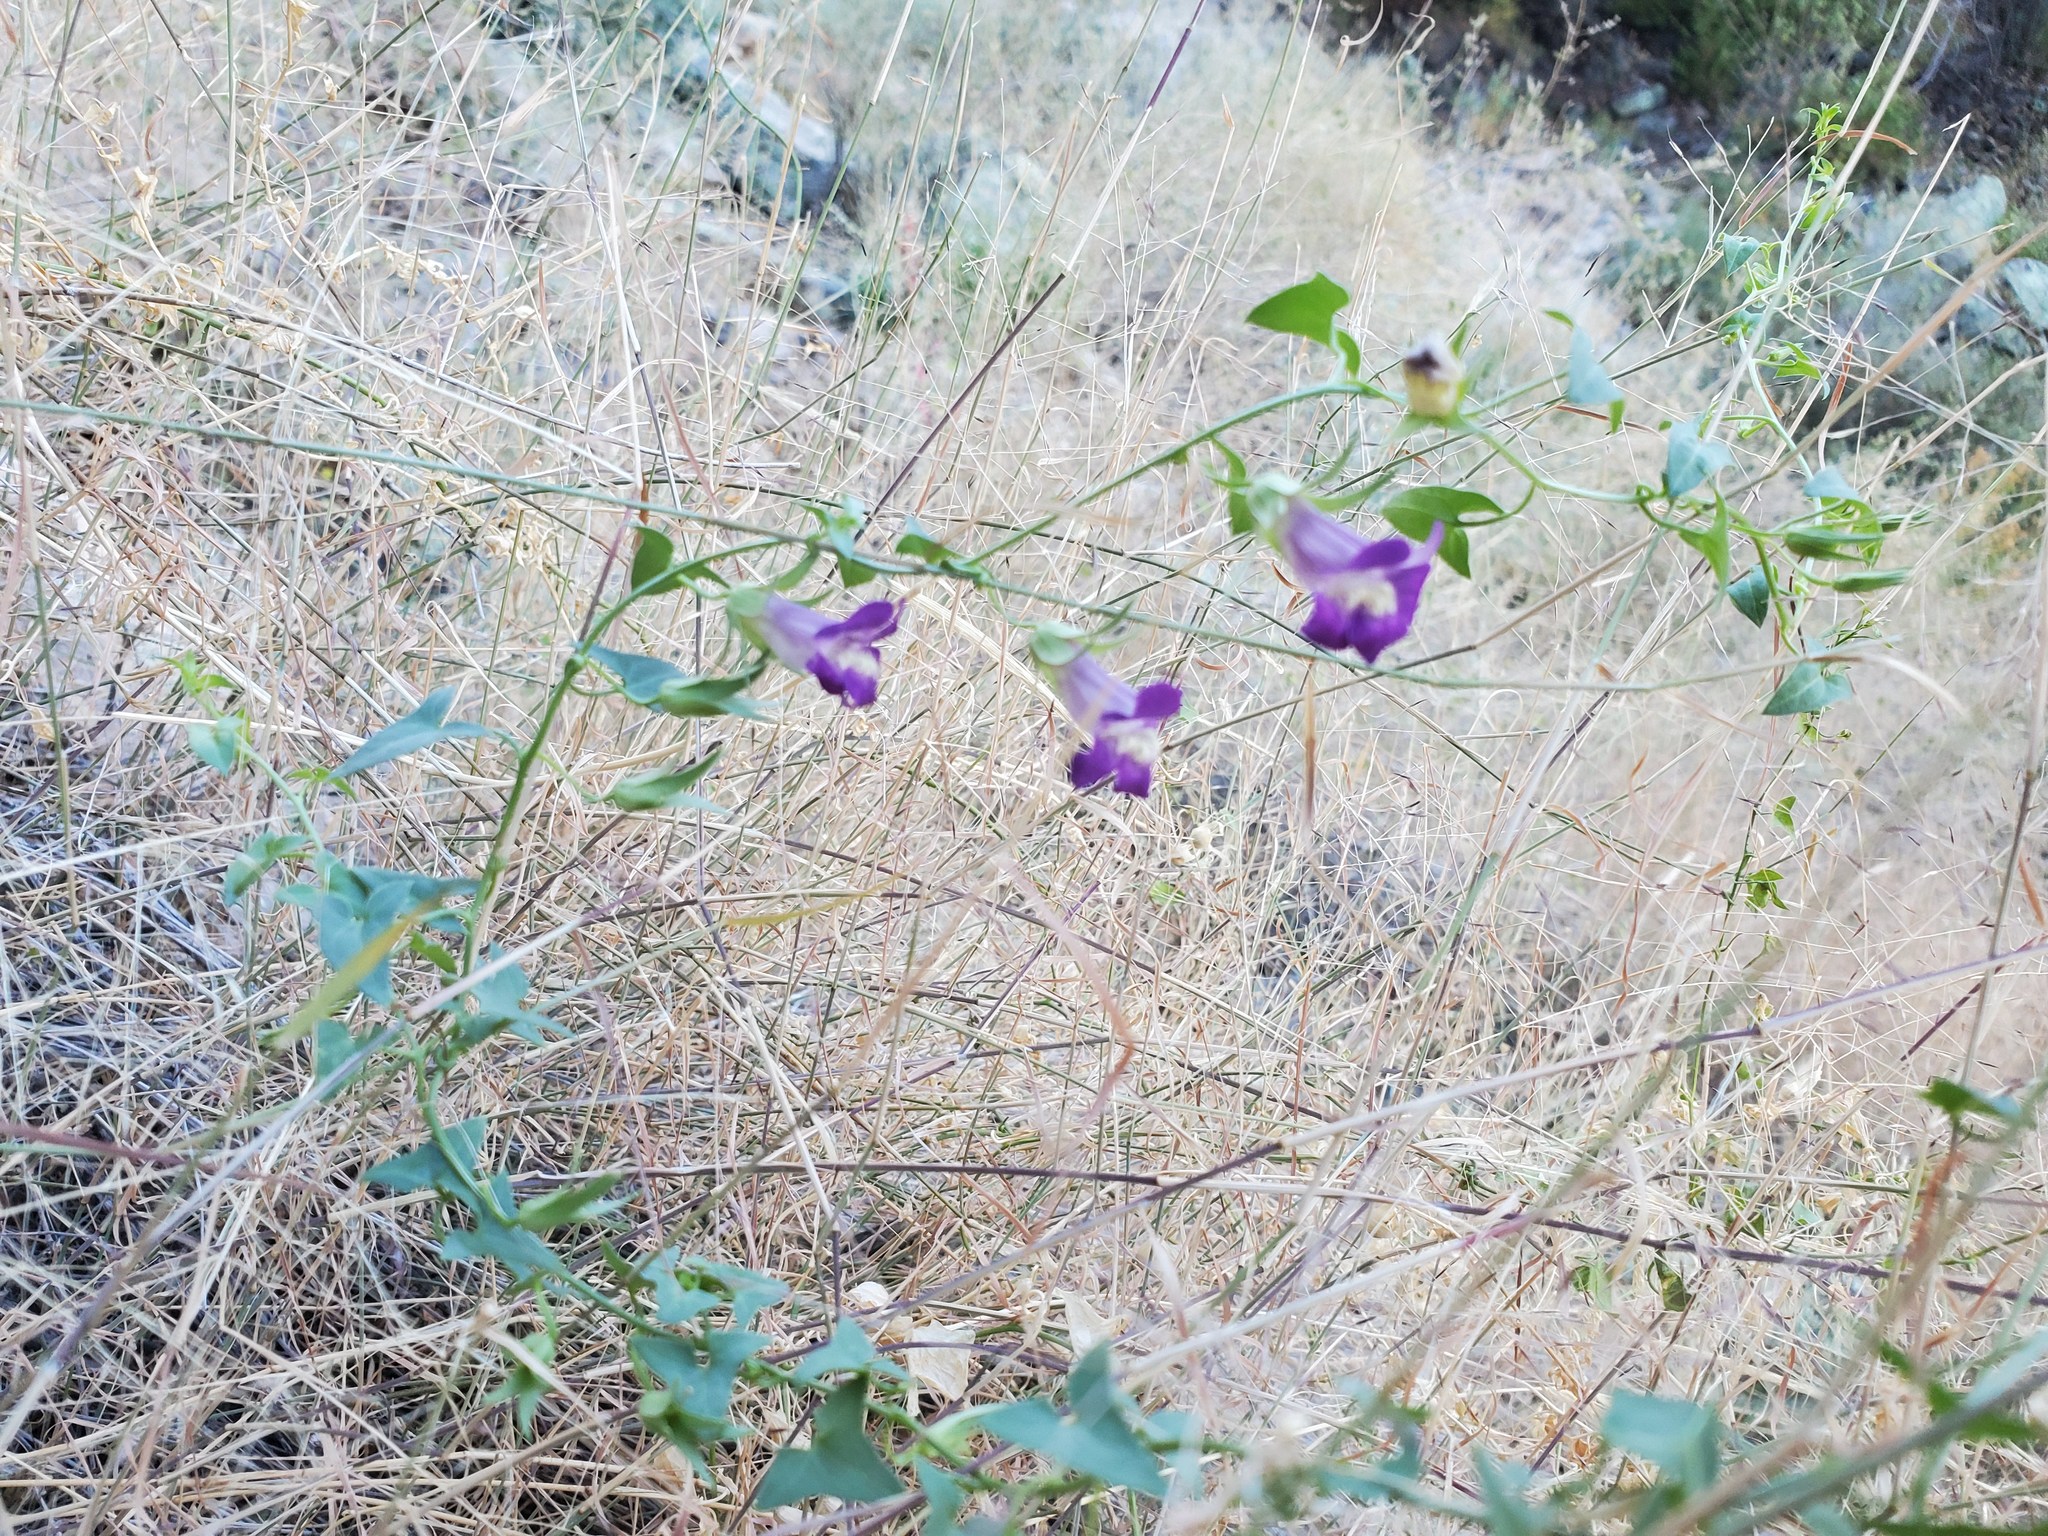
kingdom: Plantae
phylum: Tracheophyta
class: Magnoliopsida
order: Lamiales
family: Plantaginaceae
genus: Maurandella
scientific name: Maurandella antirrhiniflora
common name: Violet twining-snapdragon
